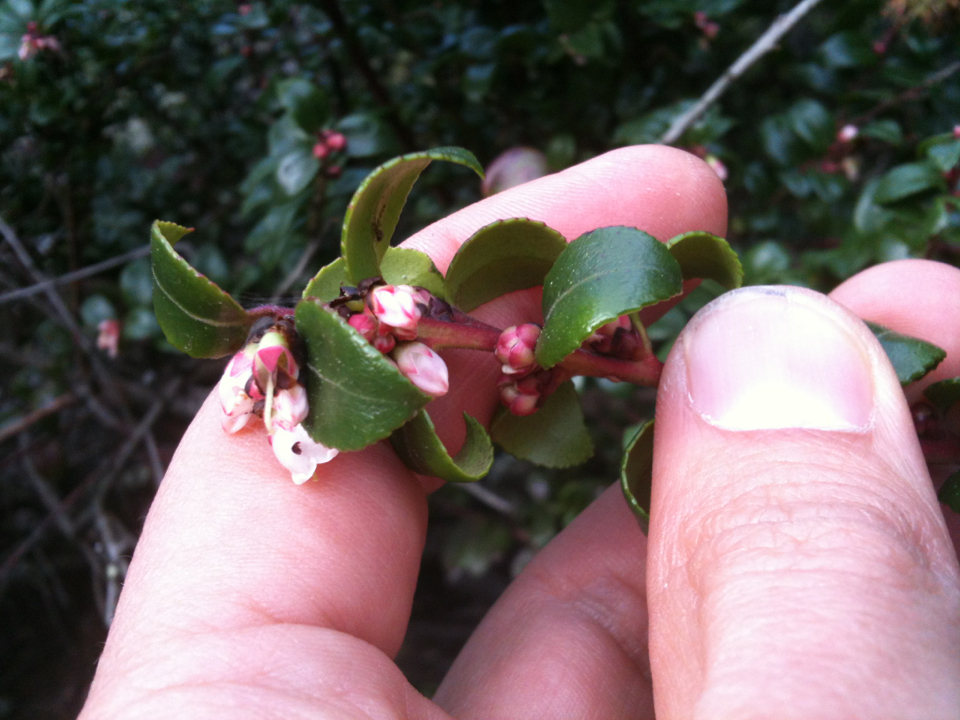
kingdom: Plantae
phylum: Tracheophyta
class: Magnoliopsida
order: Ericales
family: Ericaceae
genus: Vaccinium
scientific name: Vaccinium ovatum
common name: California-huckleberry
